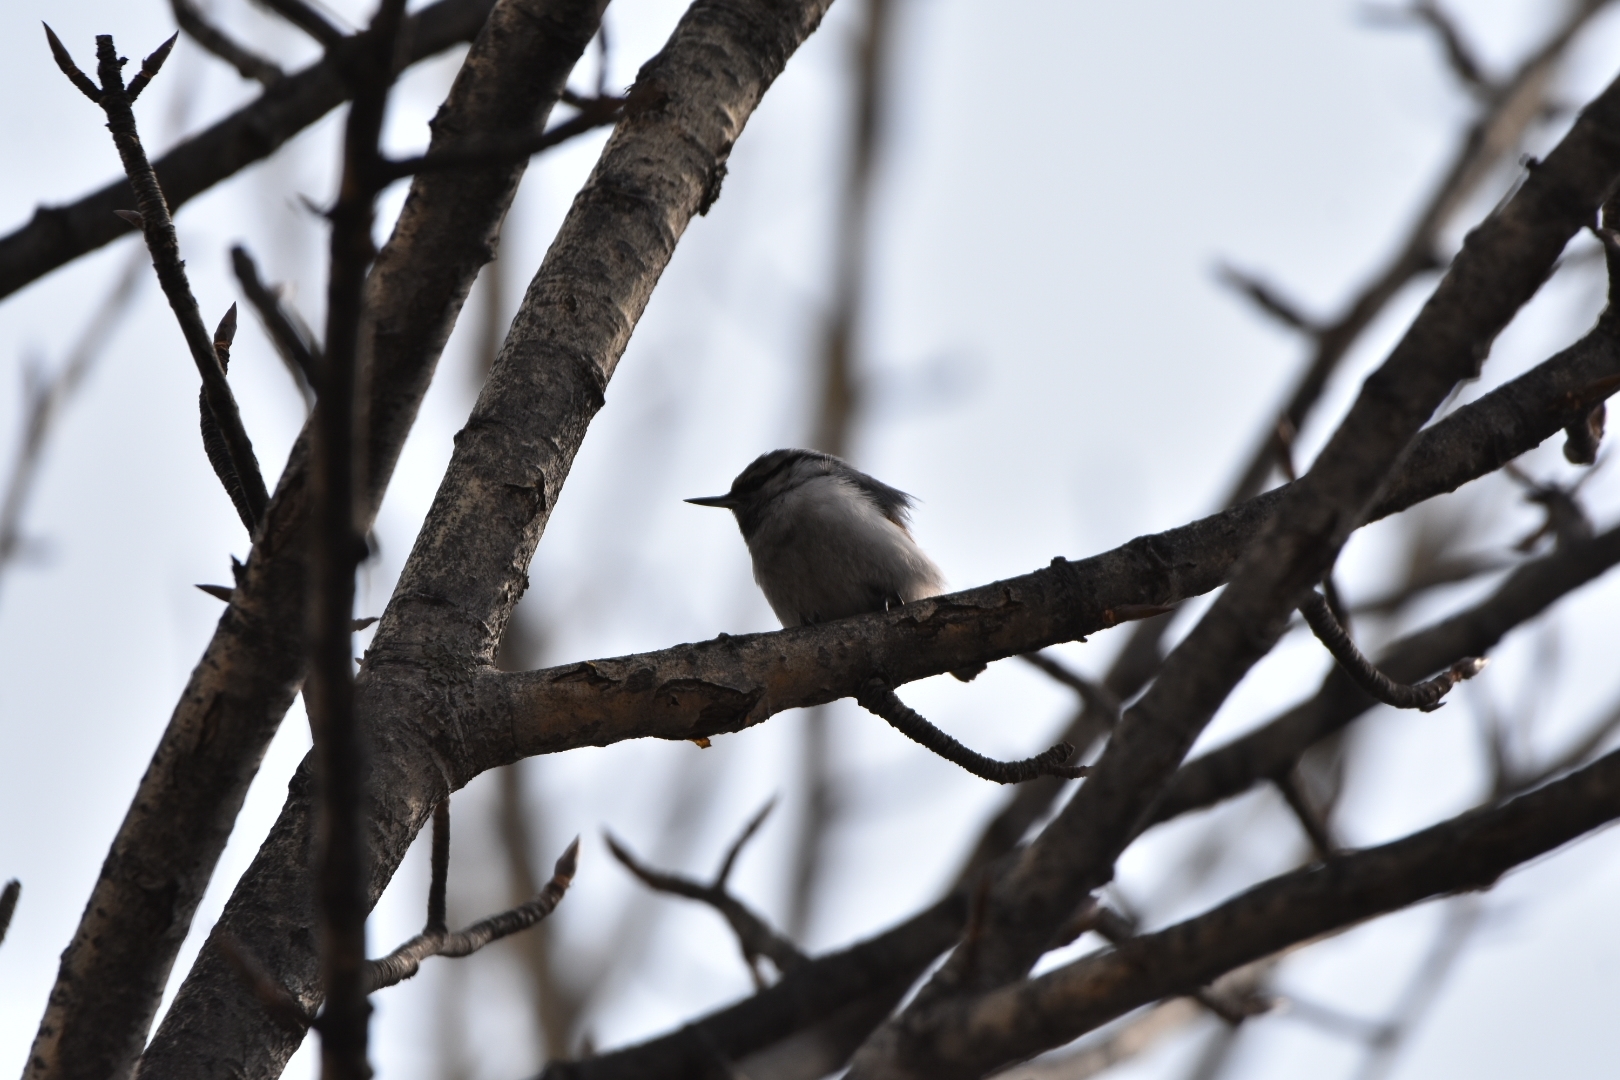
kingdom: Animalia
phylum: Chordata
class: Aves
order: Passeriformes
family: Sittidae
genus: Sitta
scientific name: Sitta europaea
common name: Eurasian nuthatch
